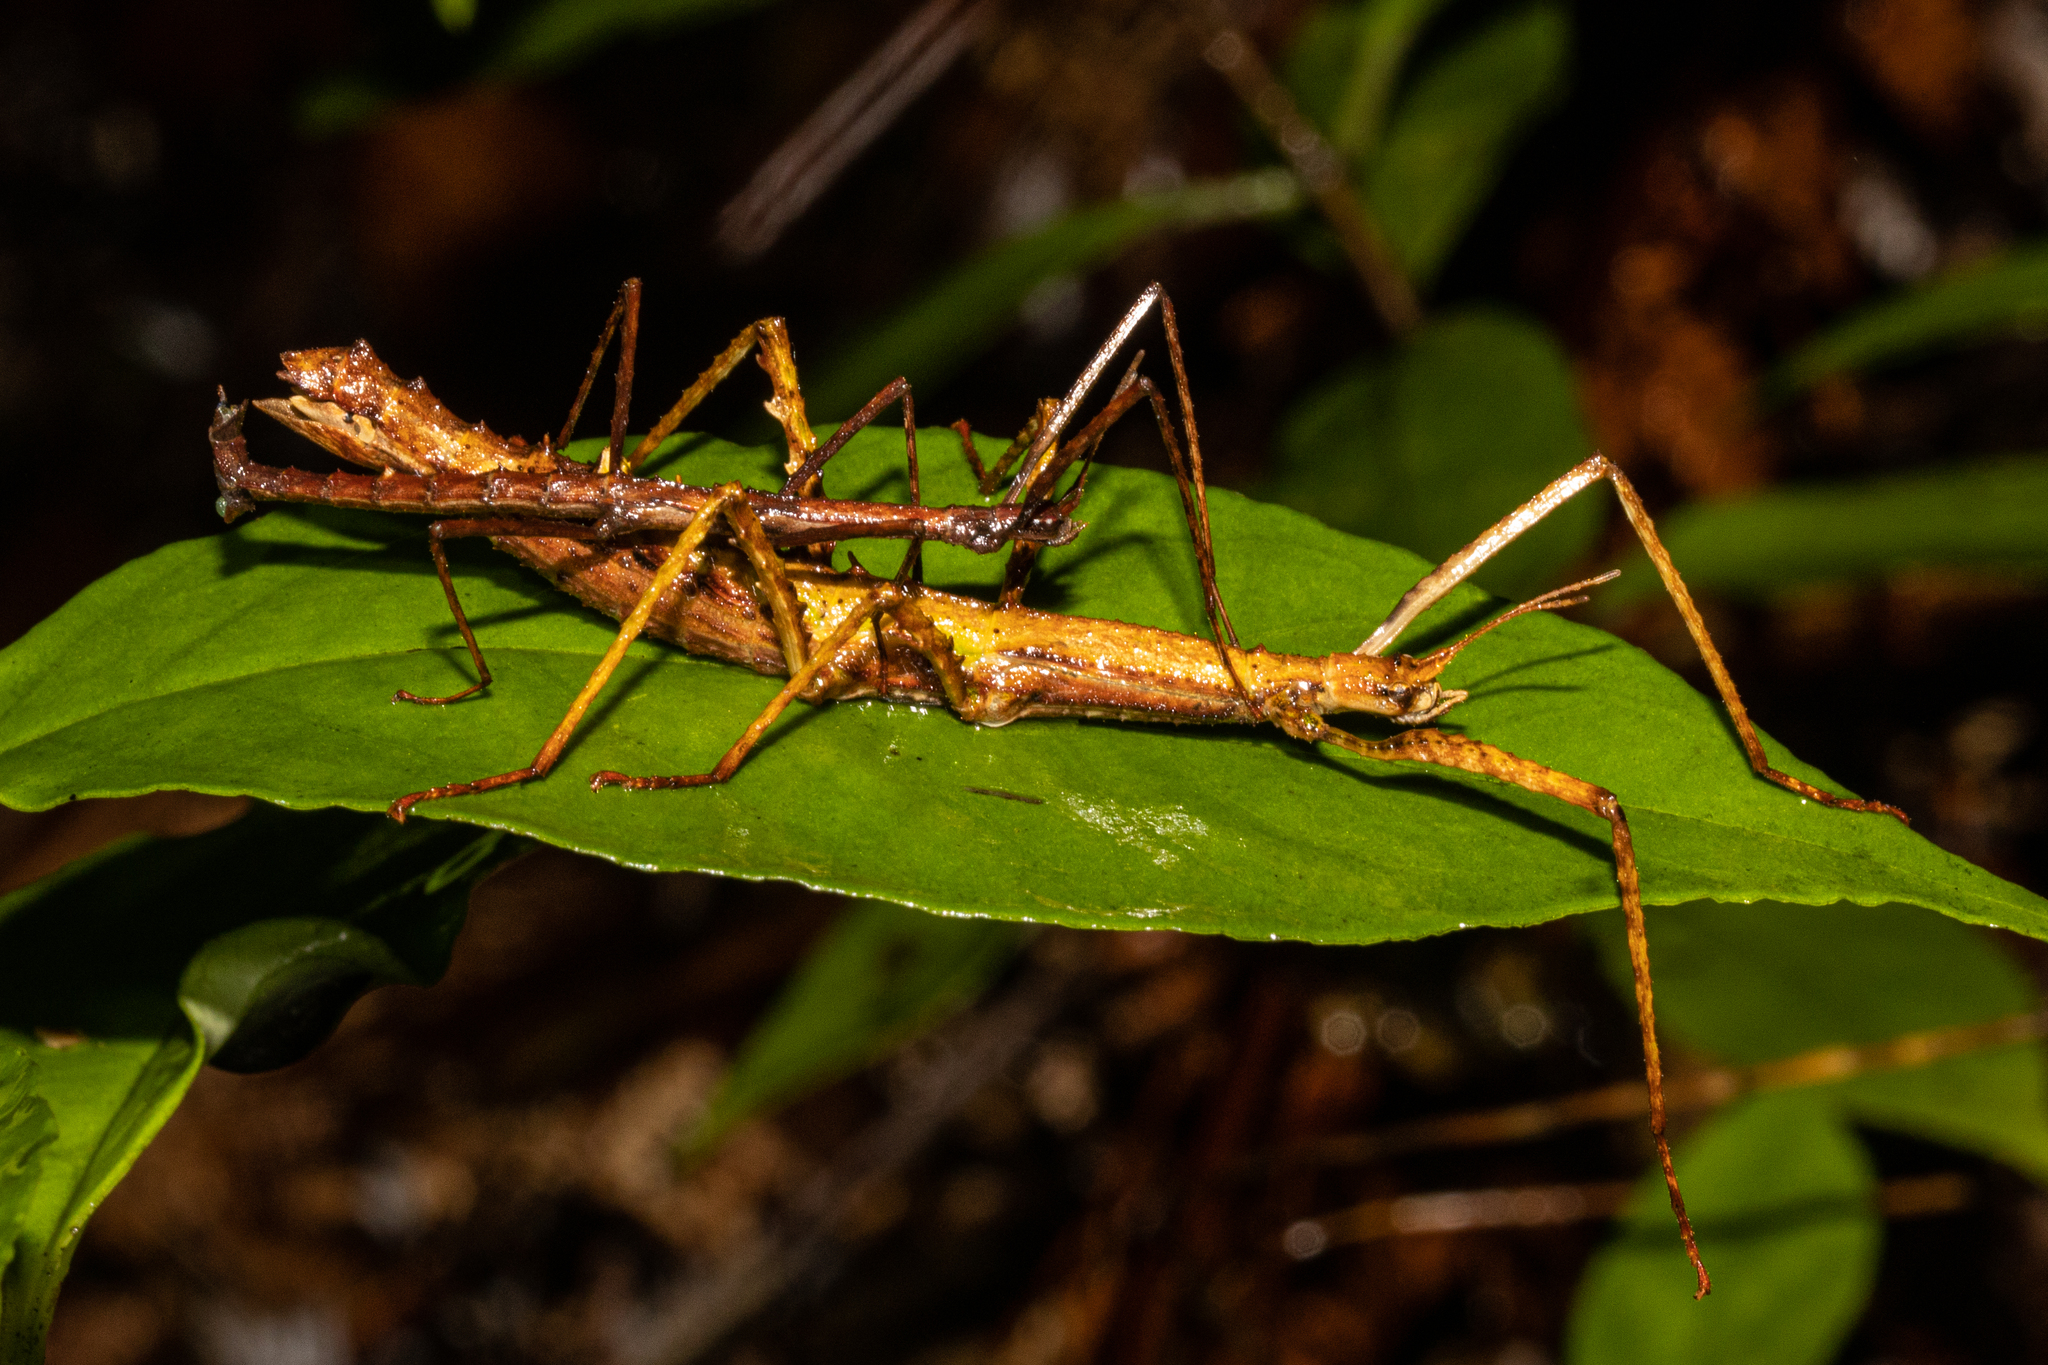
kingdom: Animalia
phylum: Arthropoda
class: Insecta
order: Phasmida
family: Phasmatidae
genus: Spinotectarchus
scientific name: Spinotectarchus acornutus
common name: The spiny ridge-backed stick insect
